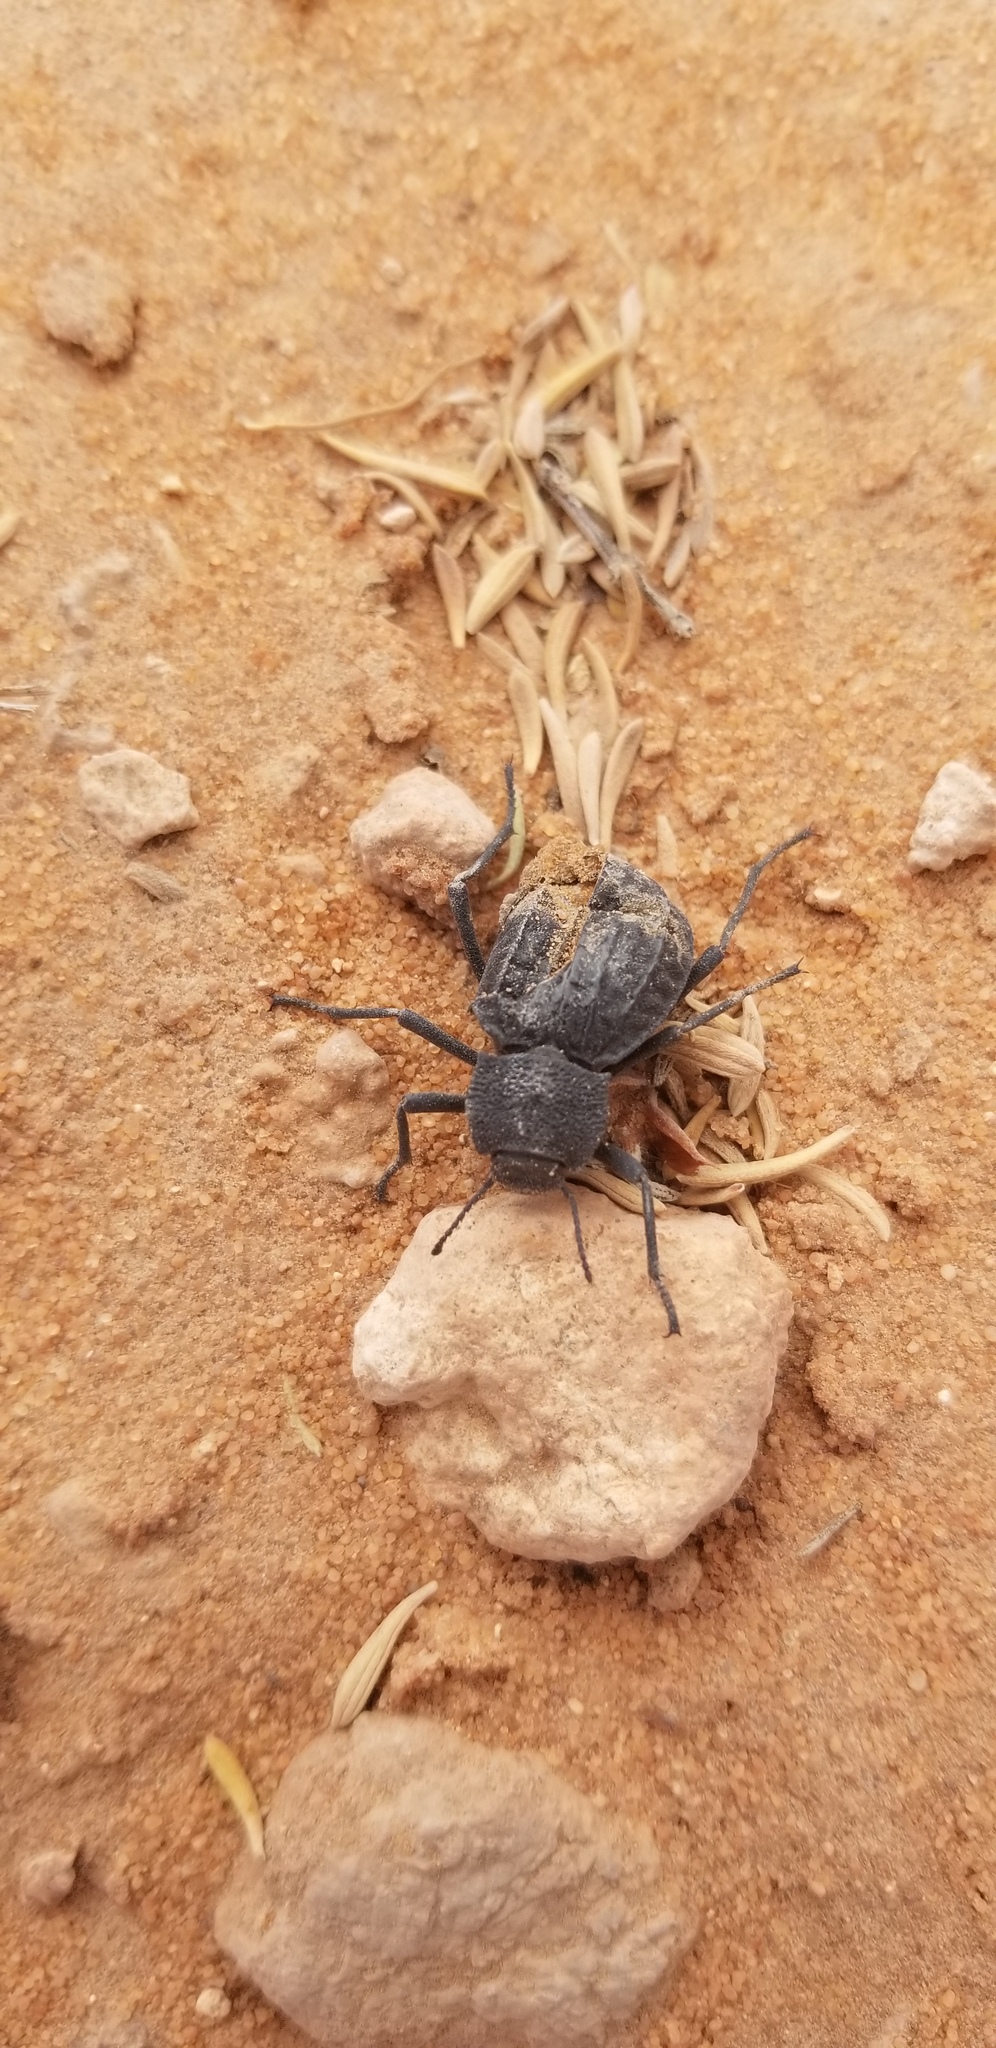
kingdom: Animalia
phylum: Arthropoda
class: Insecta
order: Coleoptera
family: Tenebrionidae
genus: Philolithus
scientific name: Philolithus sordidus
